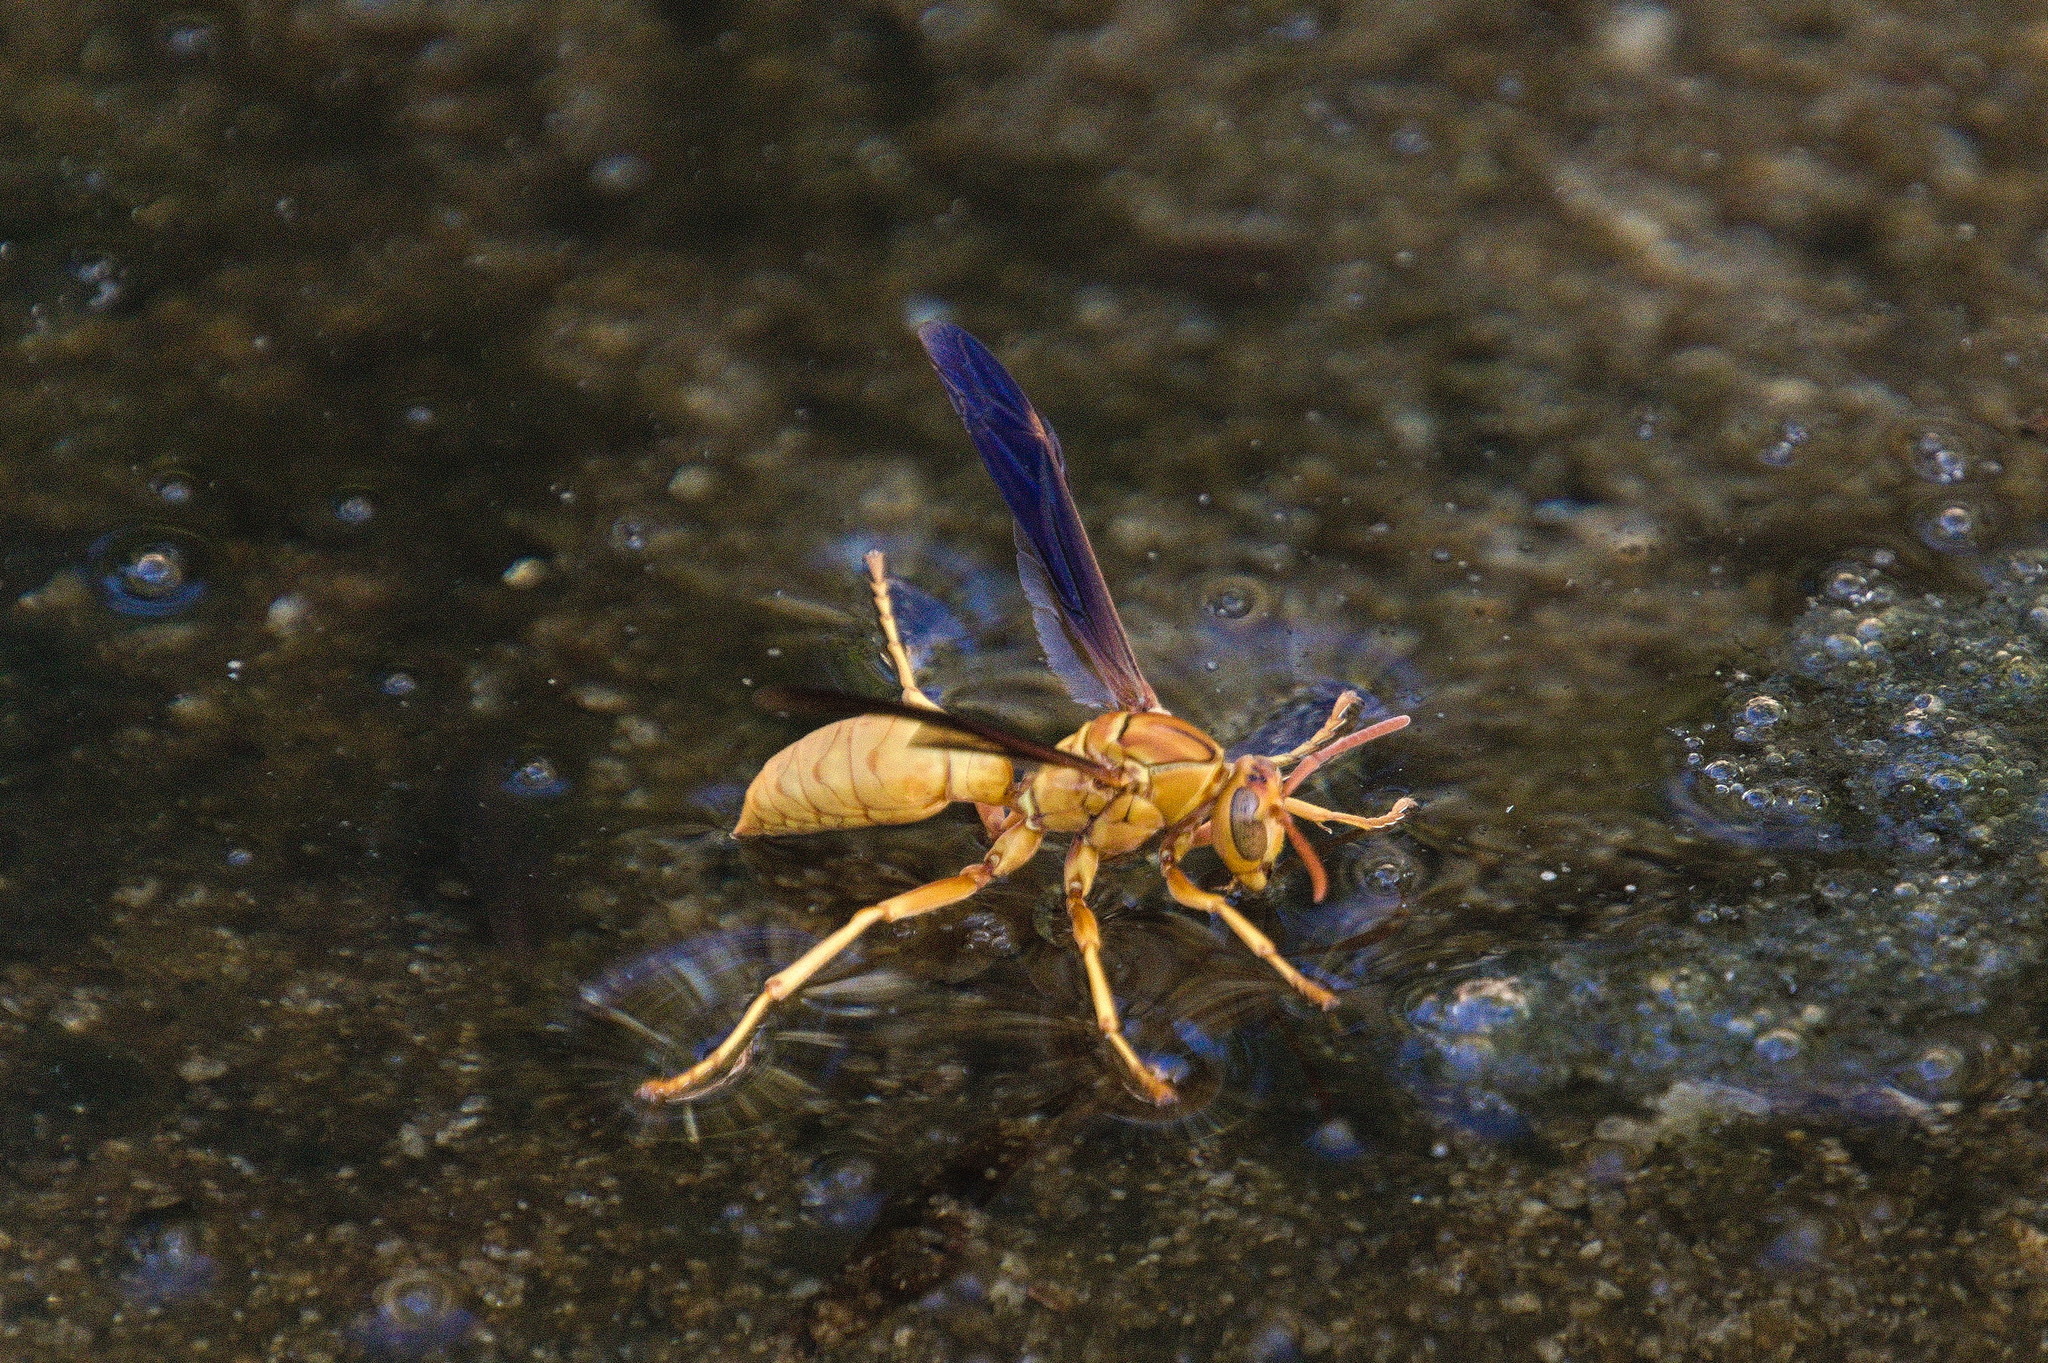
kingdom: Animalia
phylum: Arthropoda
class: Insecta
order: Hymenoptera
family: Eumenidae
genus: Polistes
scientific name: Polistes flavus
